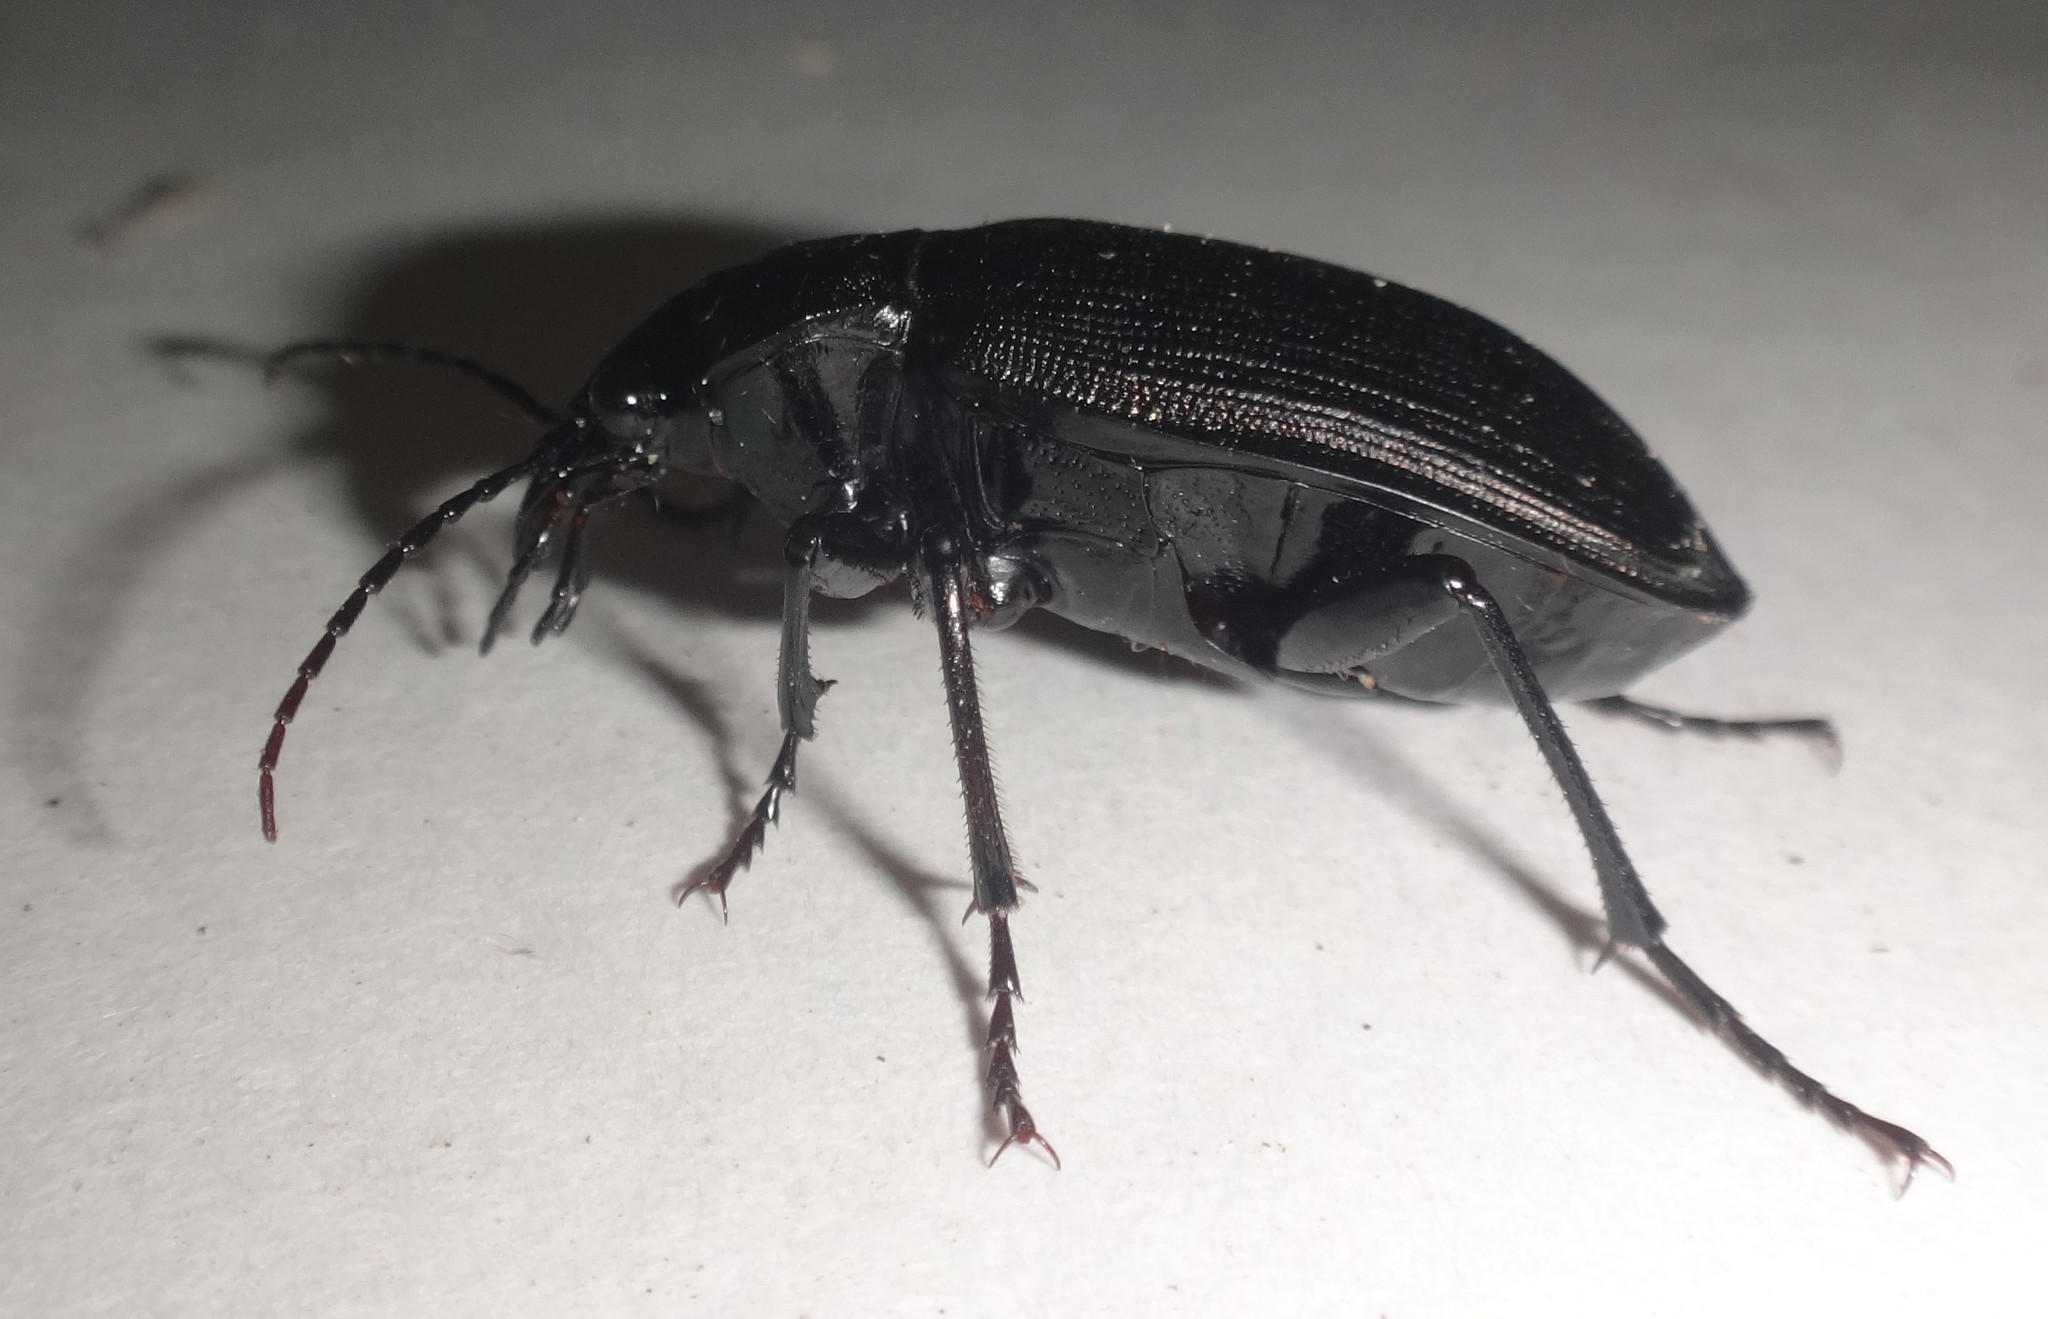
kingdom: Animalia
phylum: Arthropoda
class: Insecta
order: Coleoptera
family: Carabidae
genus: Calosoma
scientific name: Calosoma alternans
